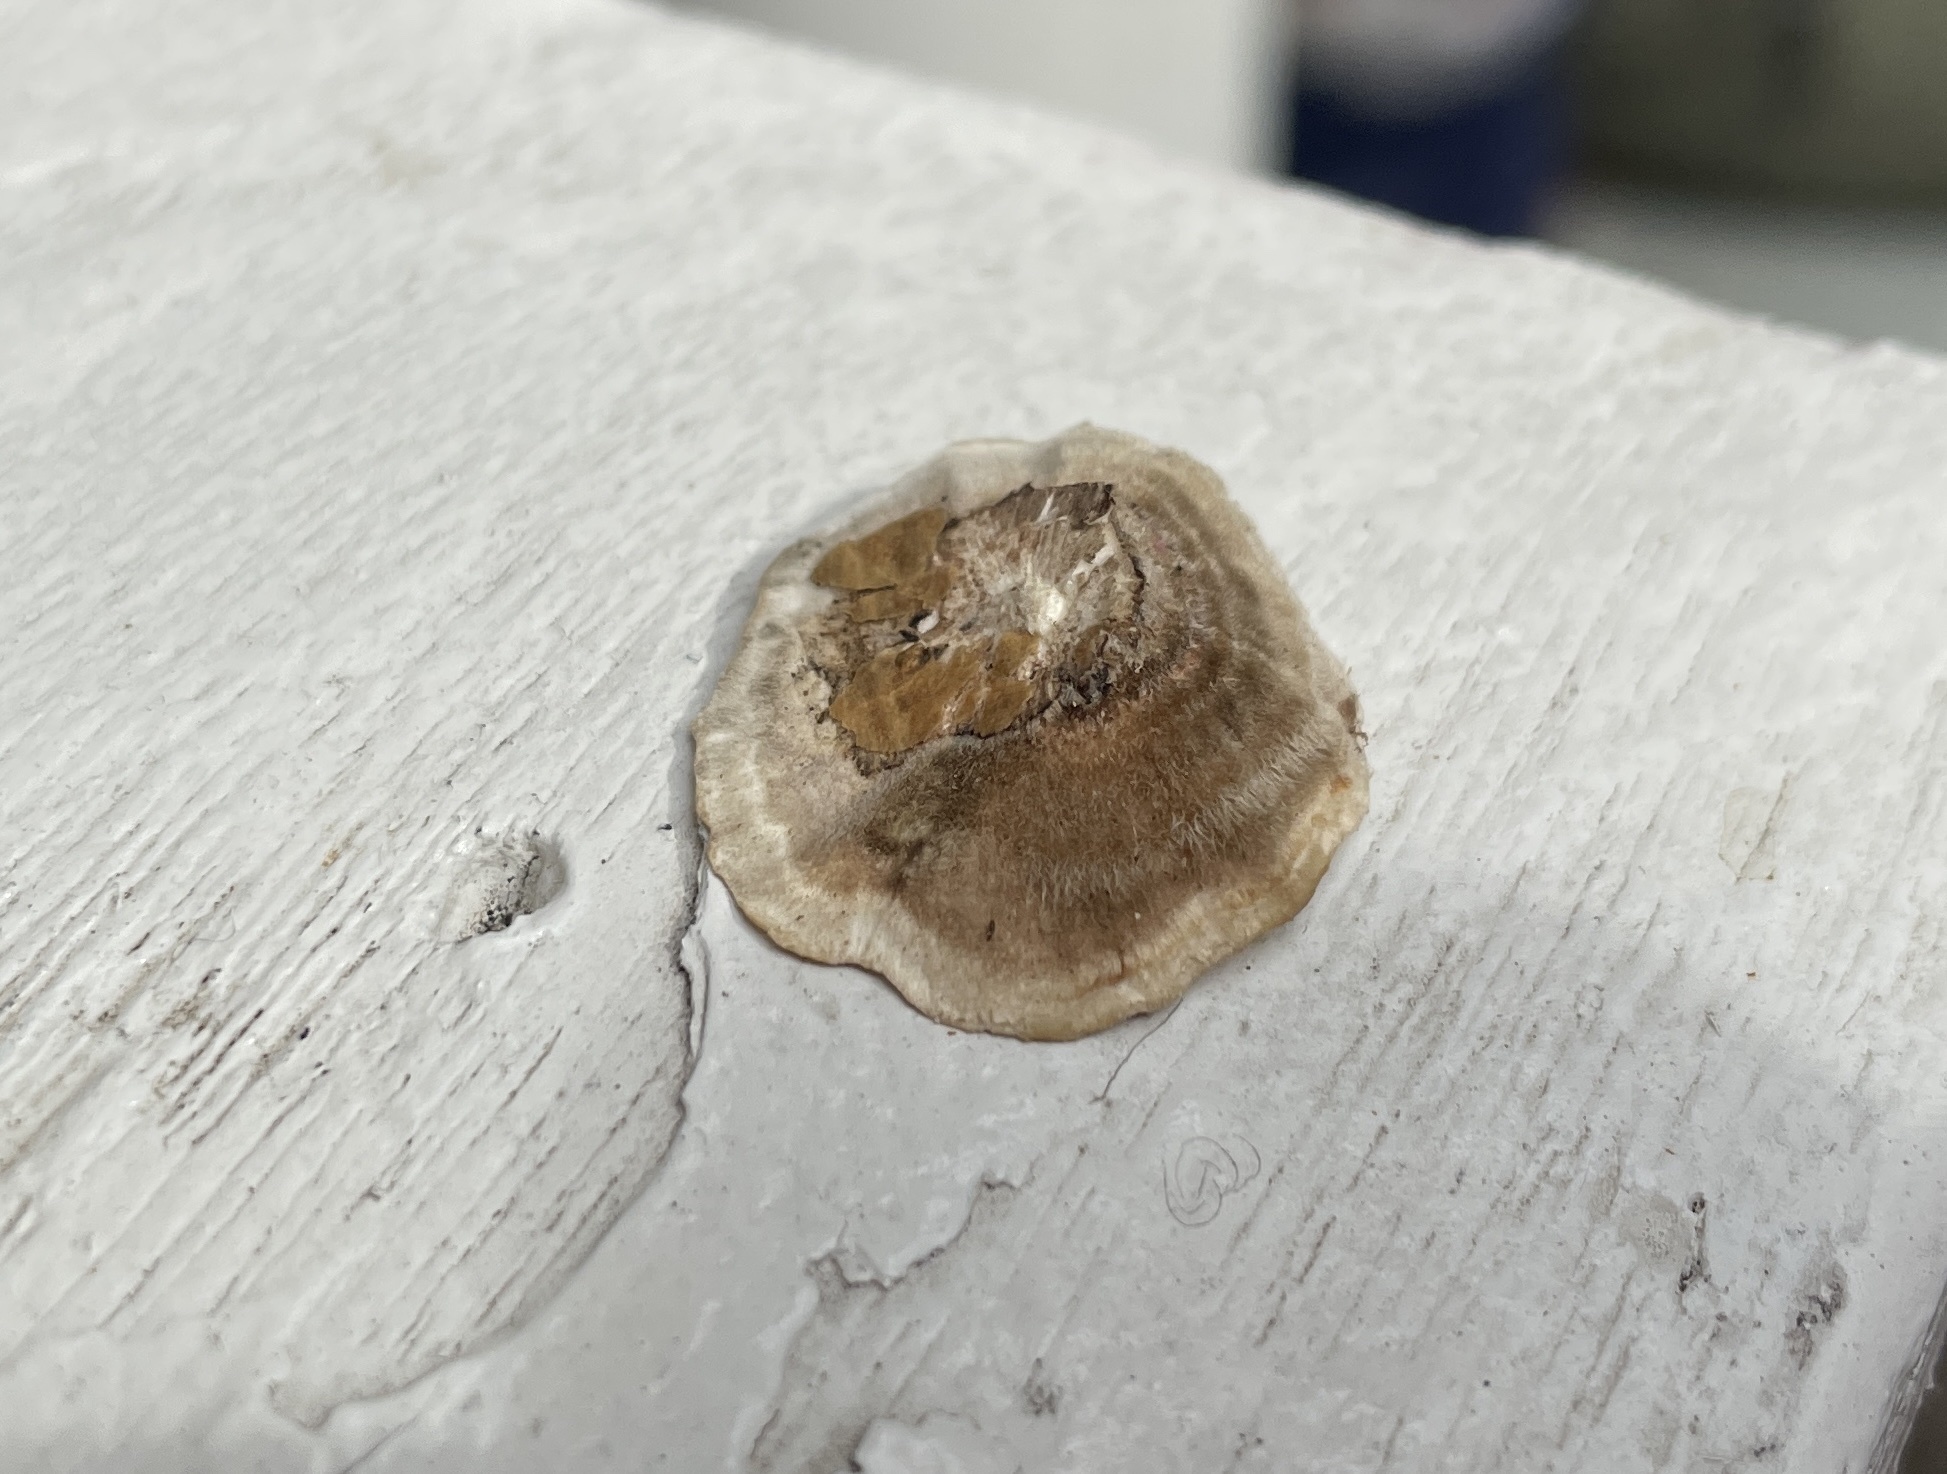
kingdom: Fungi
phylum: Basidiomycota
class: Agaricomycetes
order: Polyporales
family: Polyporaceae
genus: Poronidulus
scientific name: Poronidulus conchifer
